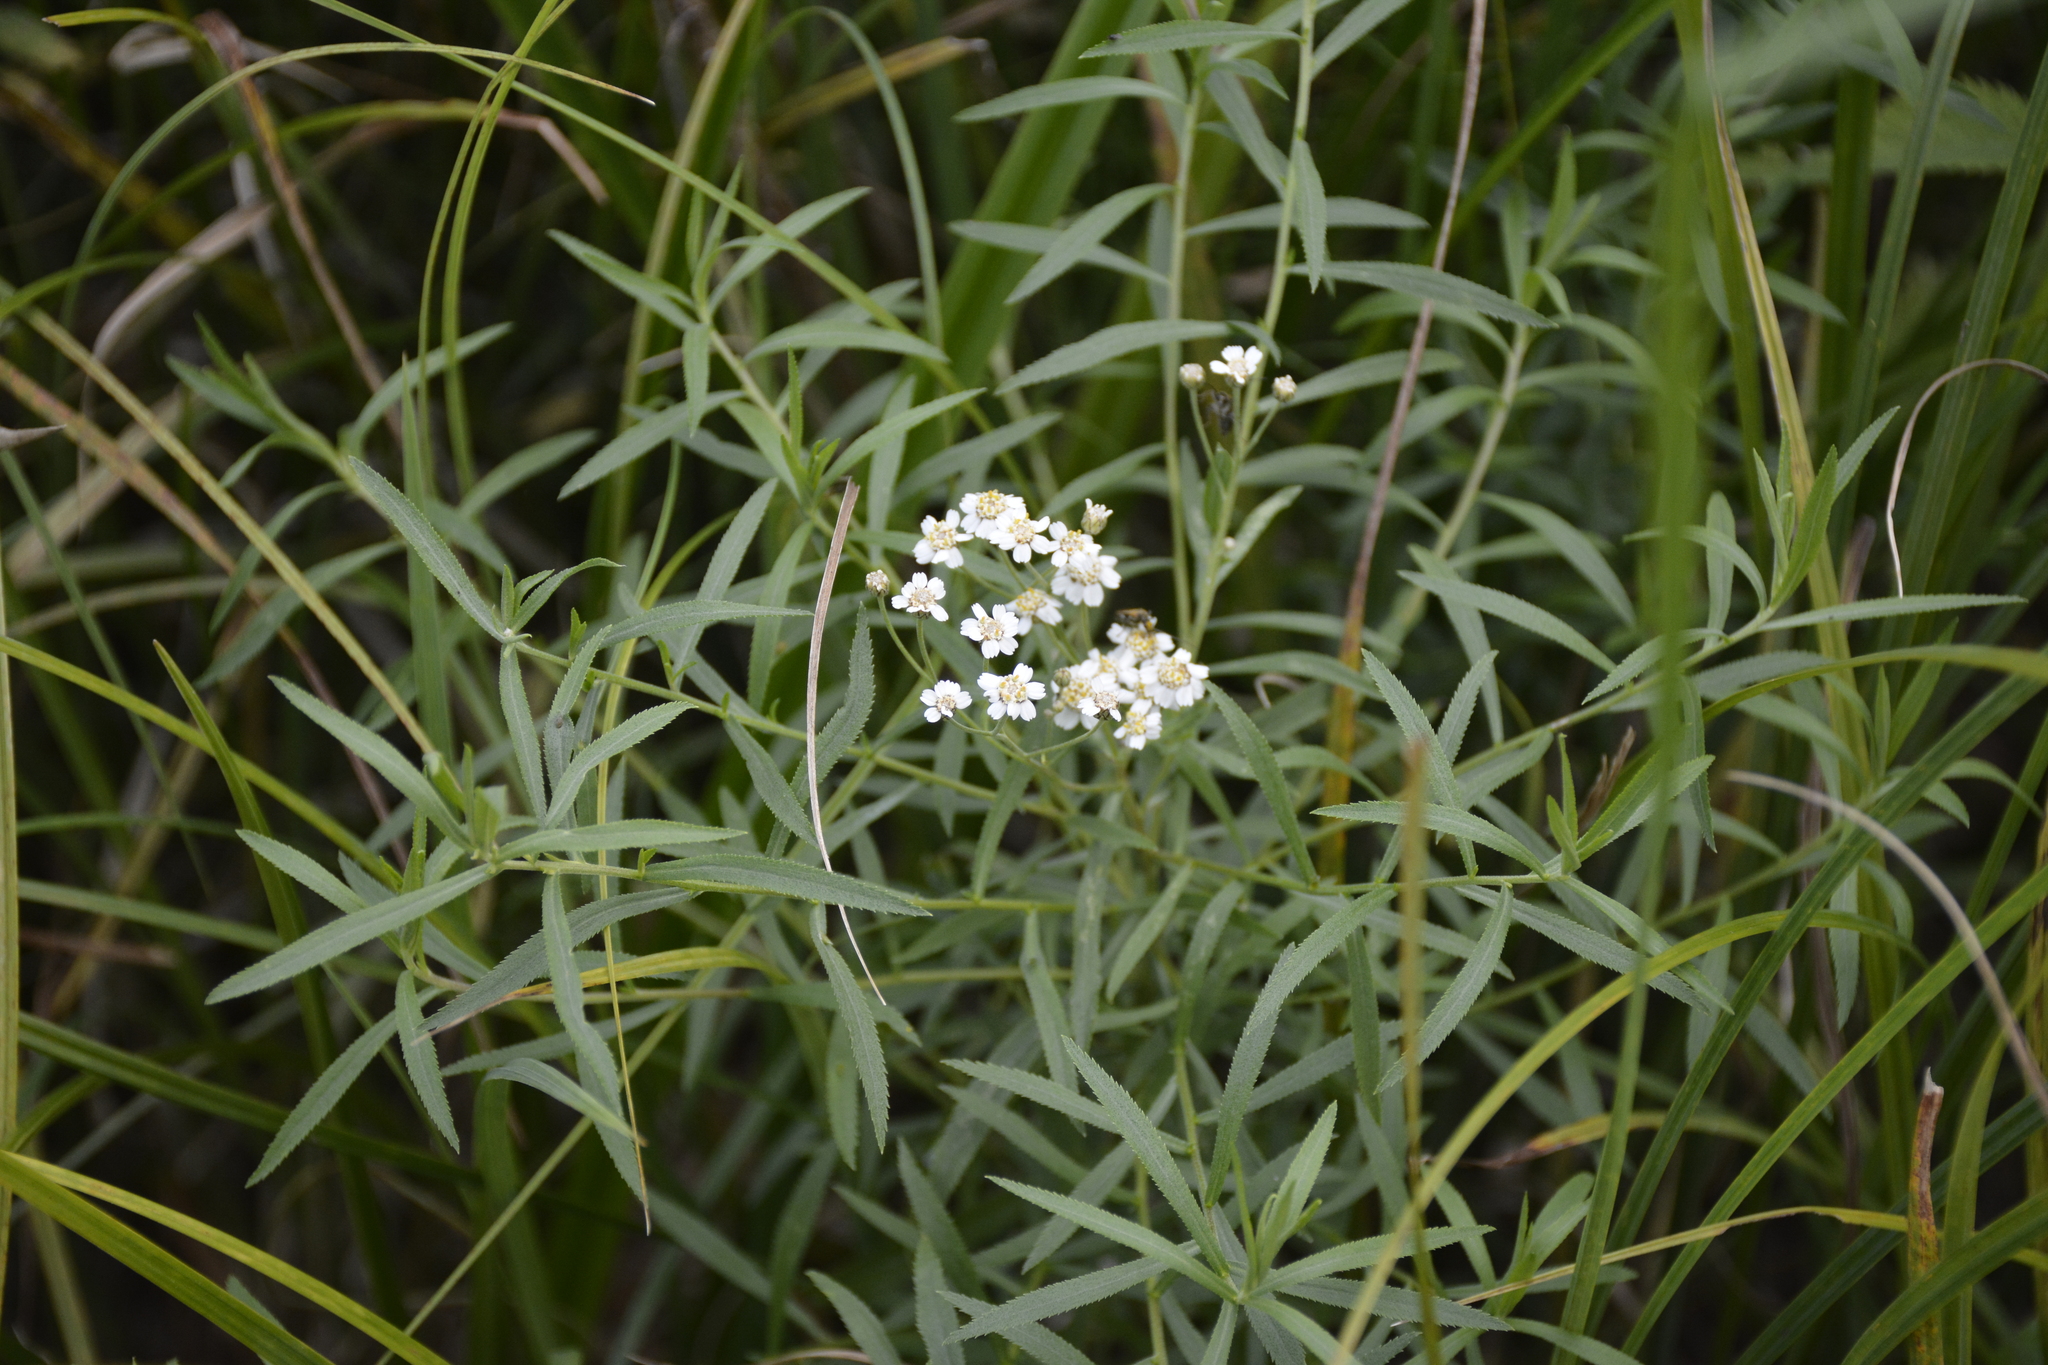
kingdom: Plantae
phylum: Tracheophyta
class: Magnoliopsida
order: Asterales
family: Asteraceae
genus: Achillea
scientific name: Achillea salicifolia
